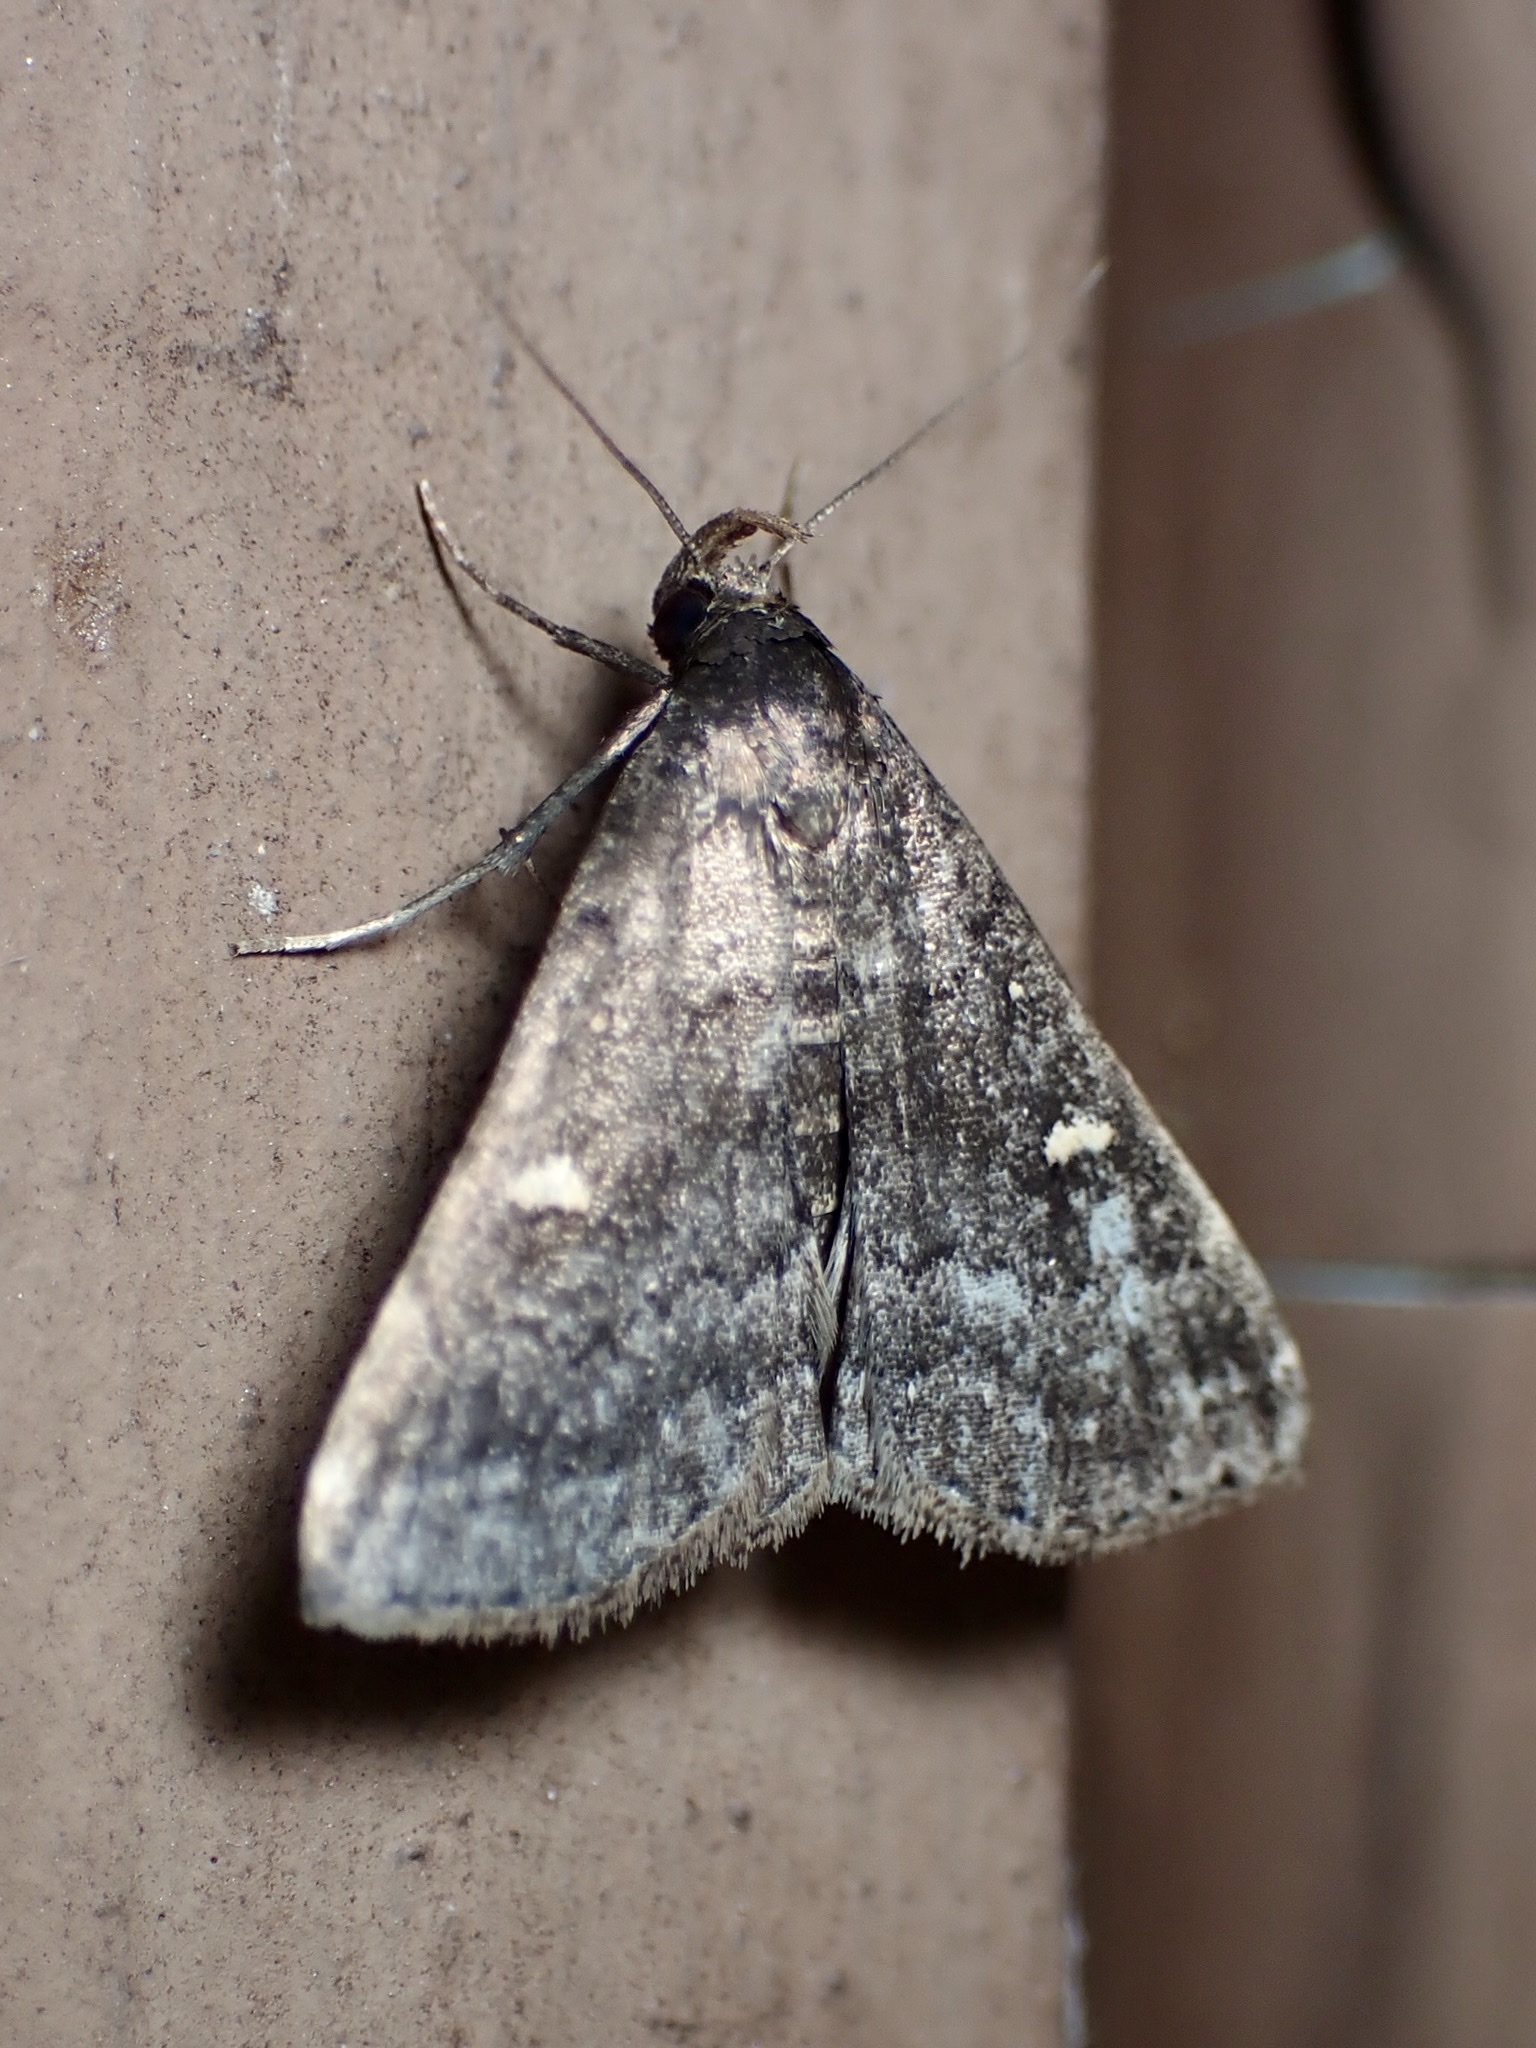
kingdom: Animalia
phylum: Arthropoda
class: Insecta
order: Lepidoptera
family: Erebidae
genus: Tetanolita
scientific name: Tetanolita mynesalis
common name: Smoky tetanolita moth
